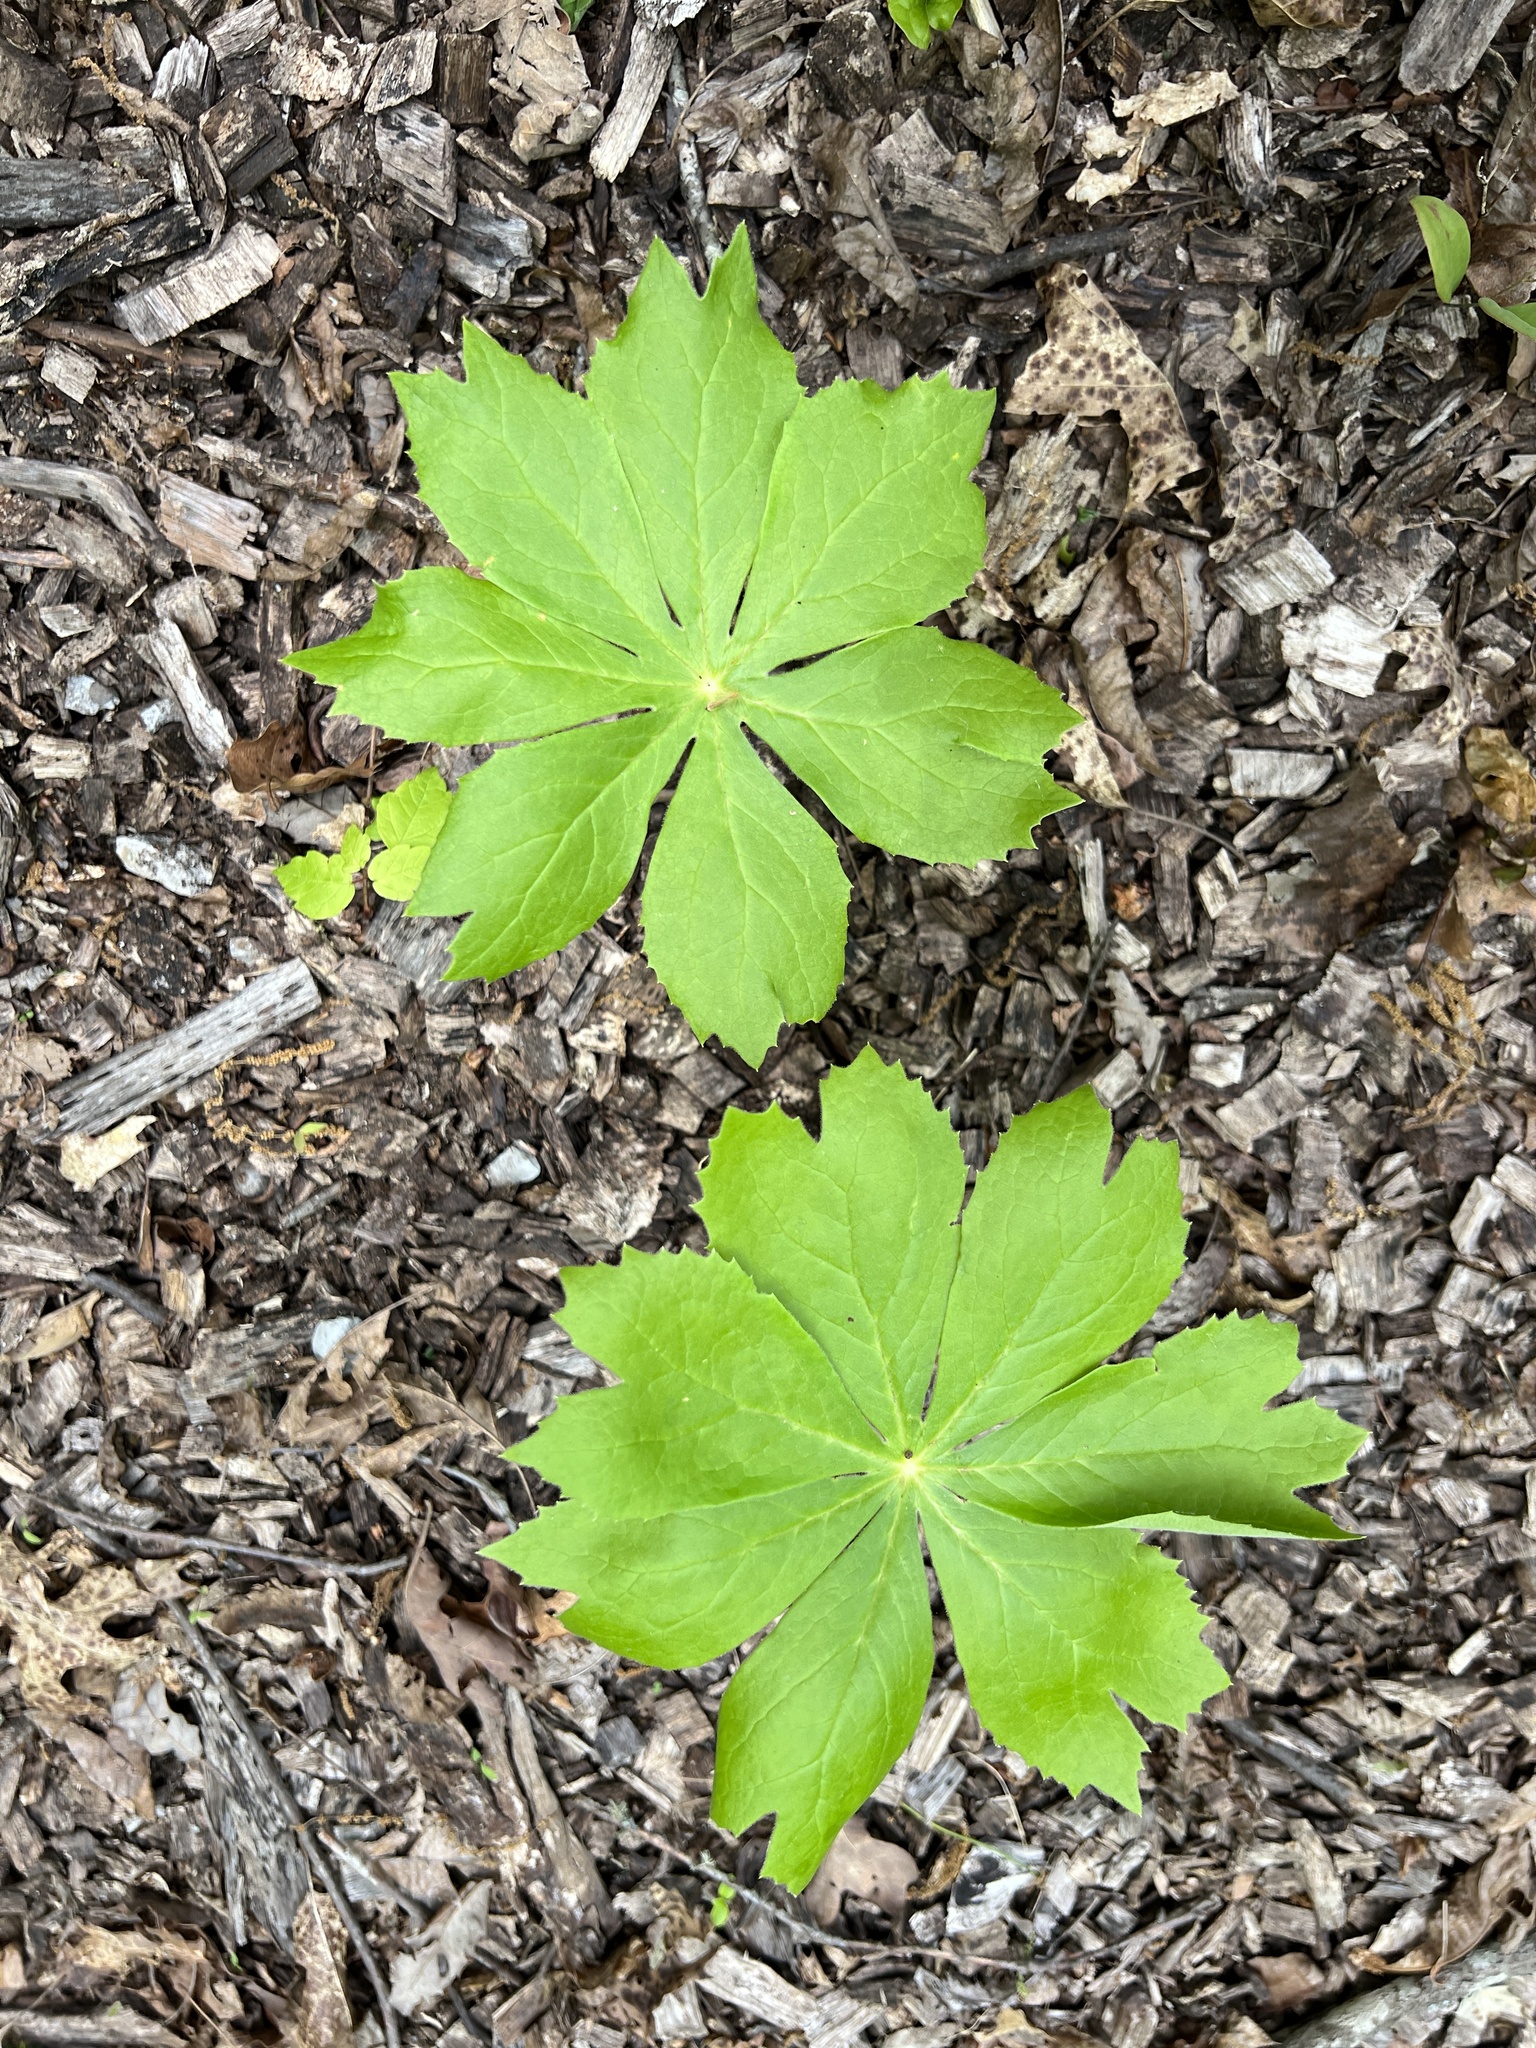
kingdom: Plantae
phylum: Tracheophyta
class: Magnoliopsida
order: Ranunculales
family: Berberidaceae
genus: Podophyllum
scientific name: Podophyllum peltatum
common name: Wild mandrake
